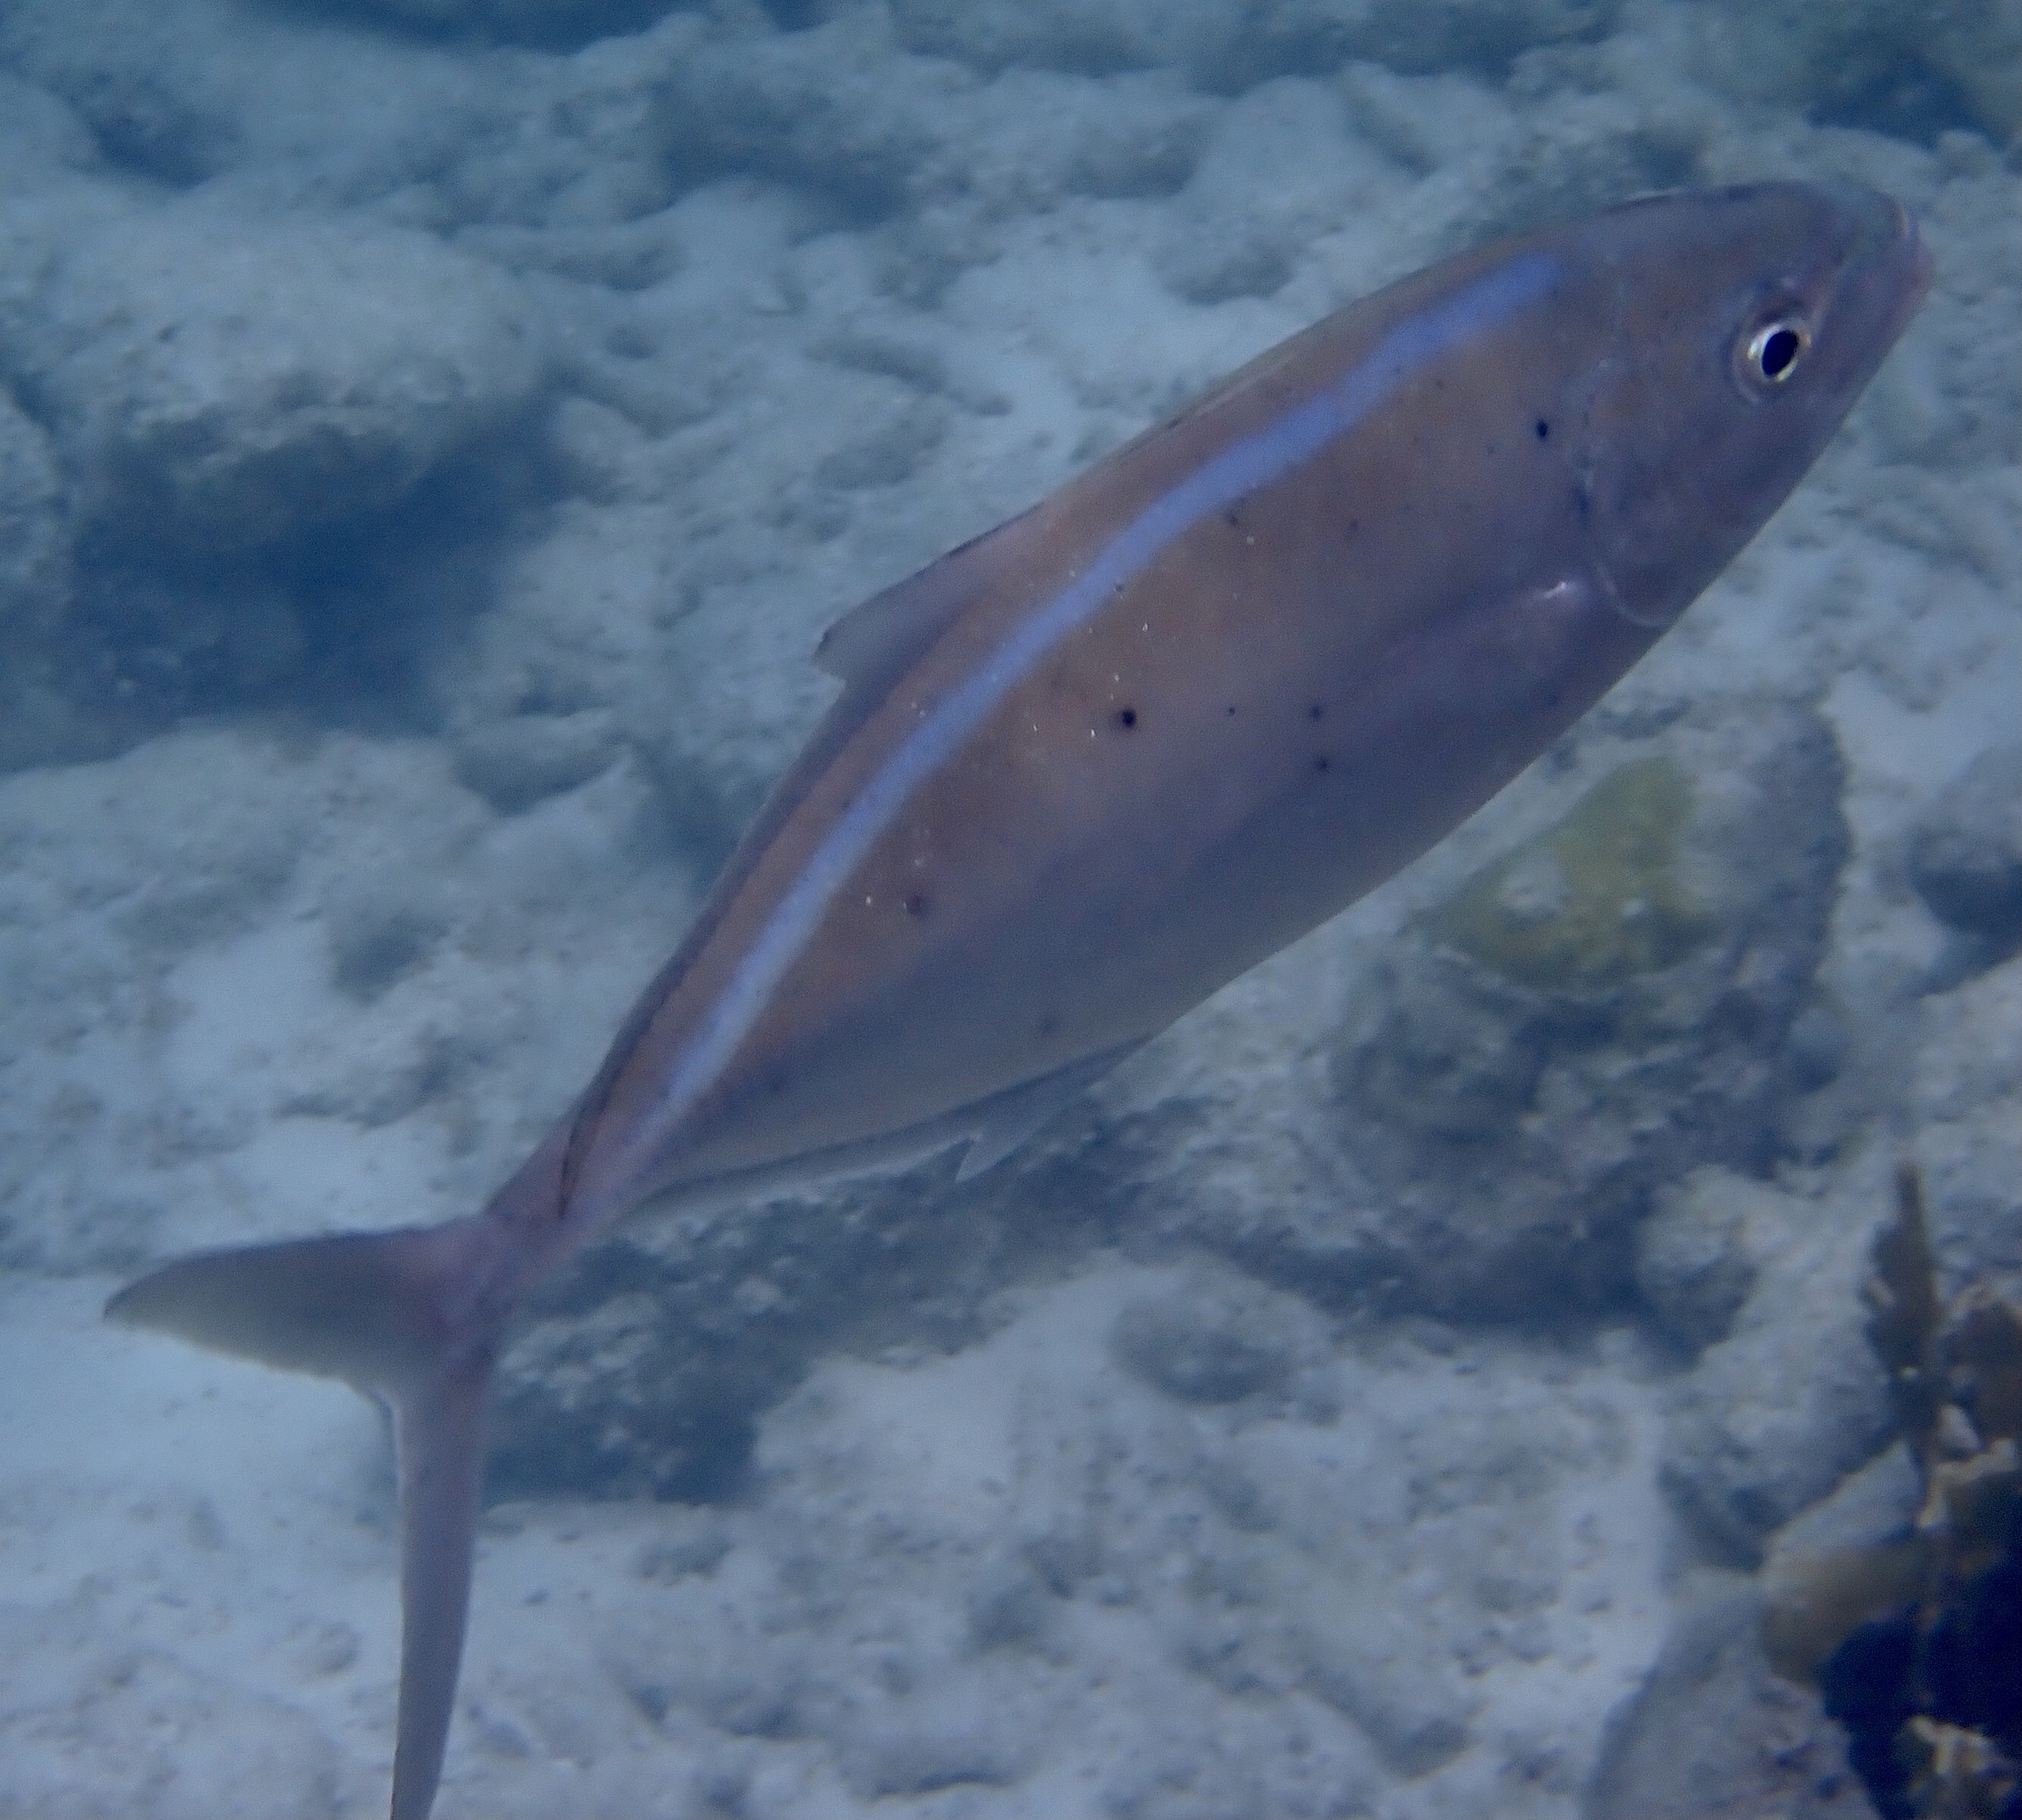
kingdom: Animalia
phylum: Chordata
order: Perciformes
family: Carangidae
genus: Caranx
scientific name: Caranx ruber
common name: Bar jack
